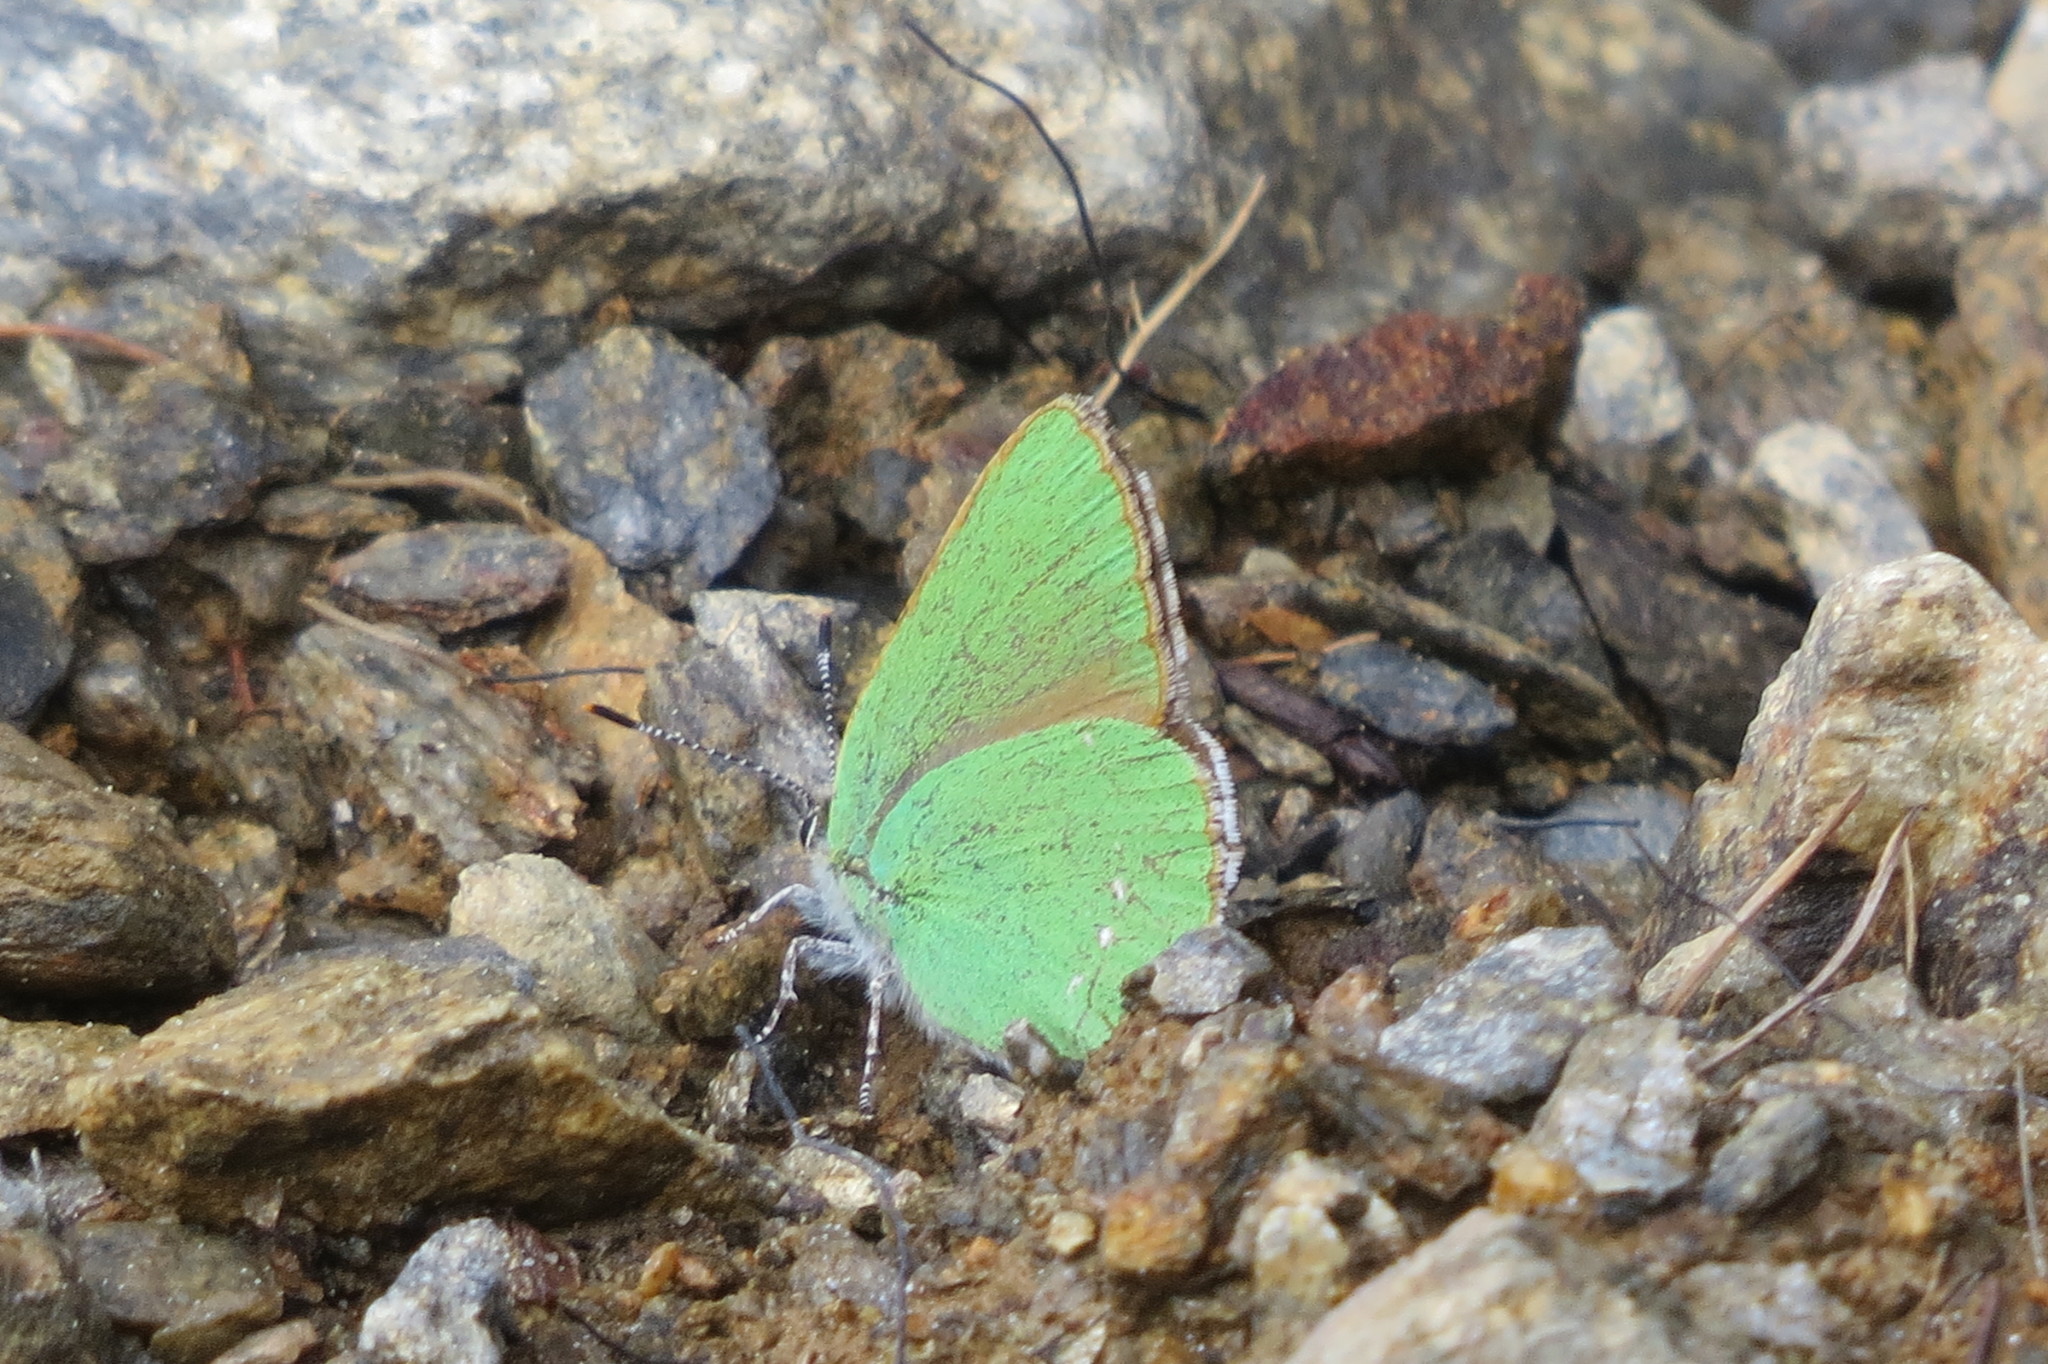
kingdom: Animalia
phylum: Arthropoda
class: Insecta
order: Lepidoptera
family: Lycaenidae
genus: Callophrys
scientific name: Callophrys rubi
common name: Green hairstreak
